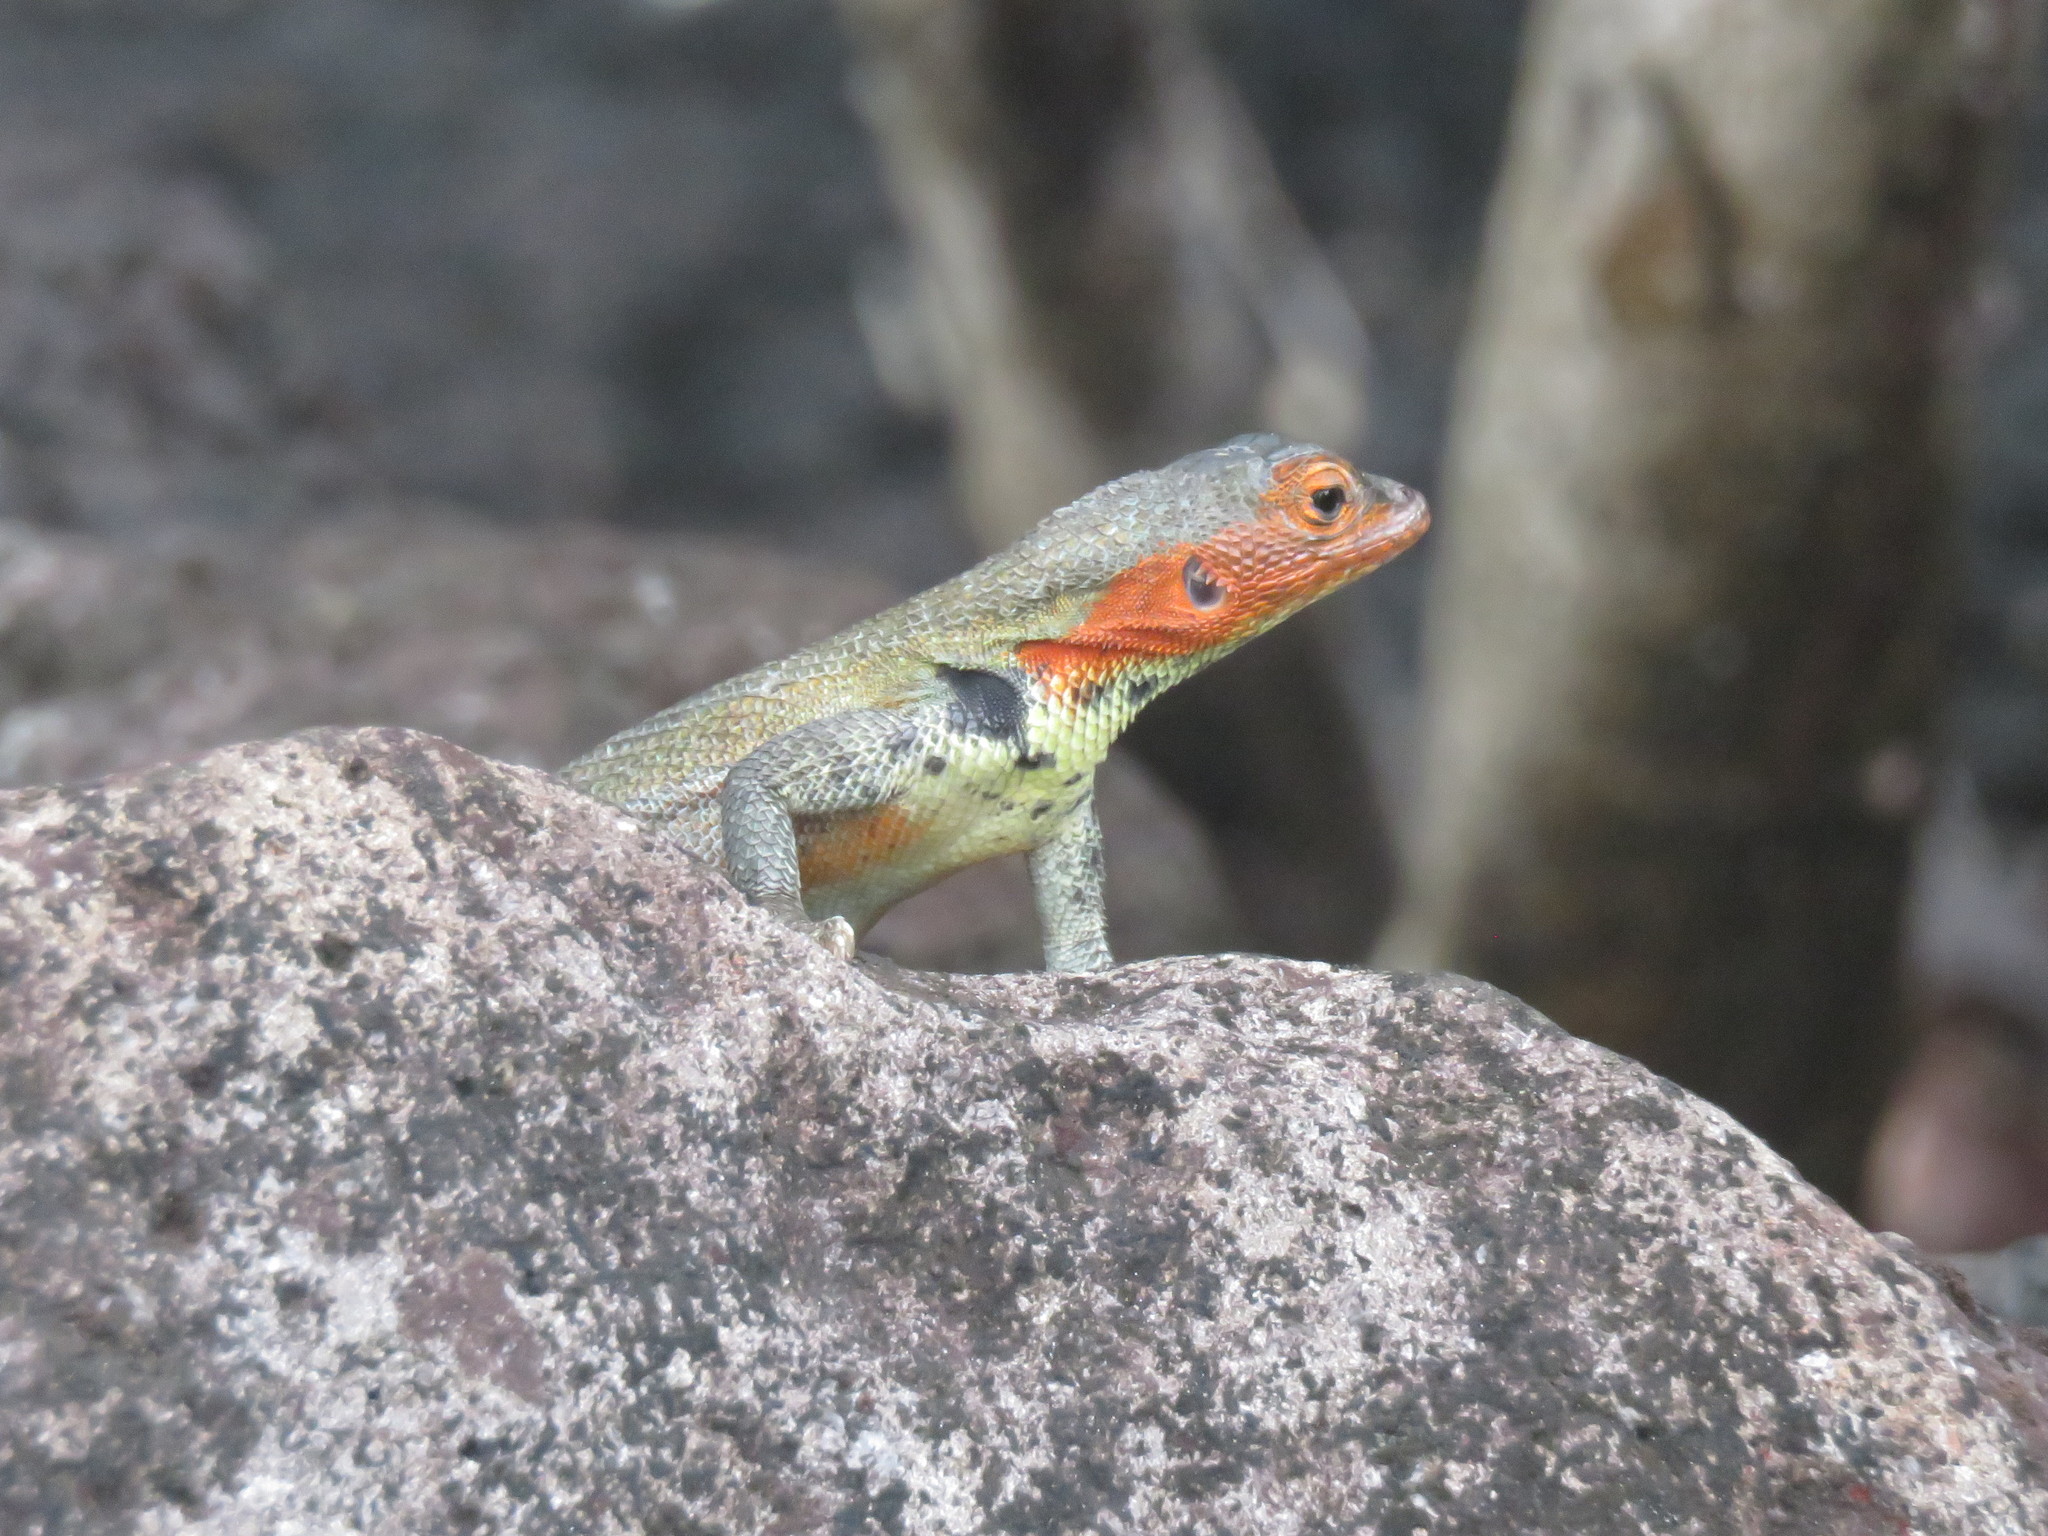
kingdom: Animalia
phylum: Chordata
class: Squamata
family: Tropiduridae
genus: Microlophus
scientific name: Microlophus indefatigabilis
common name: Galapagos lava lizard
